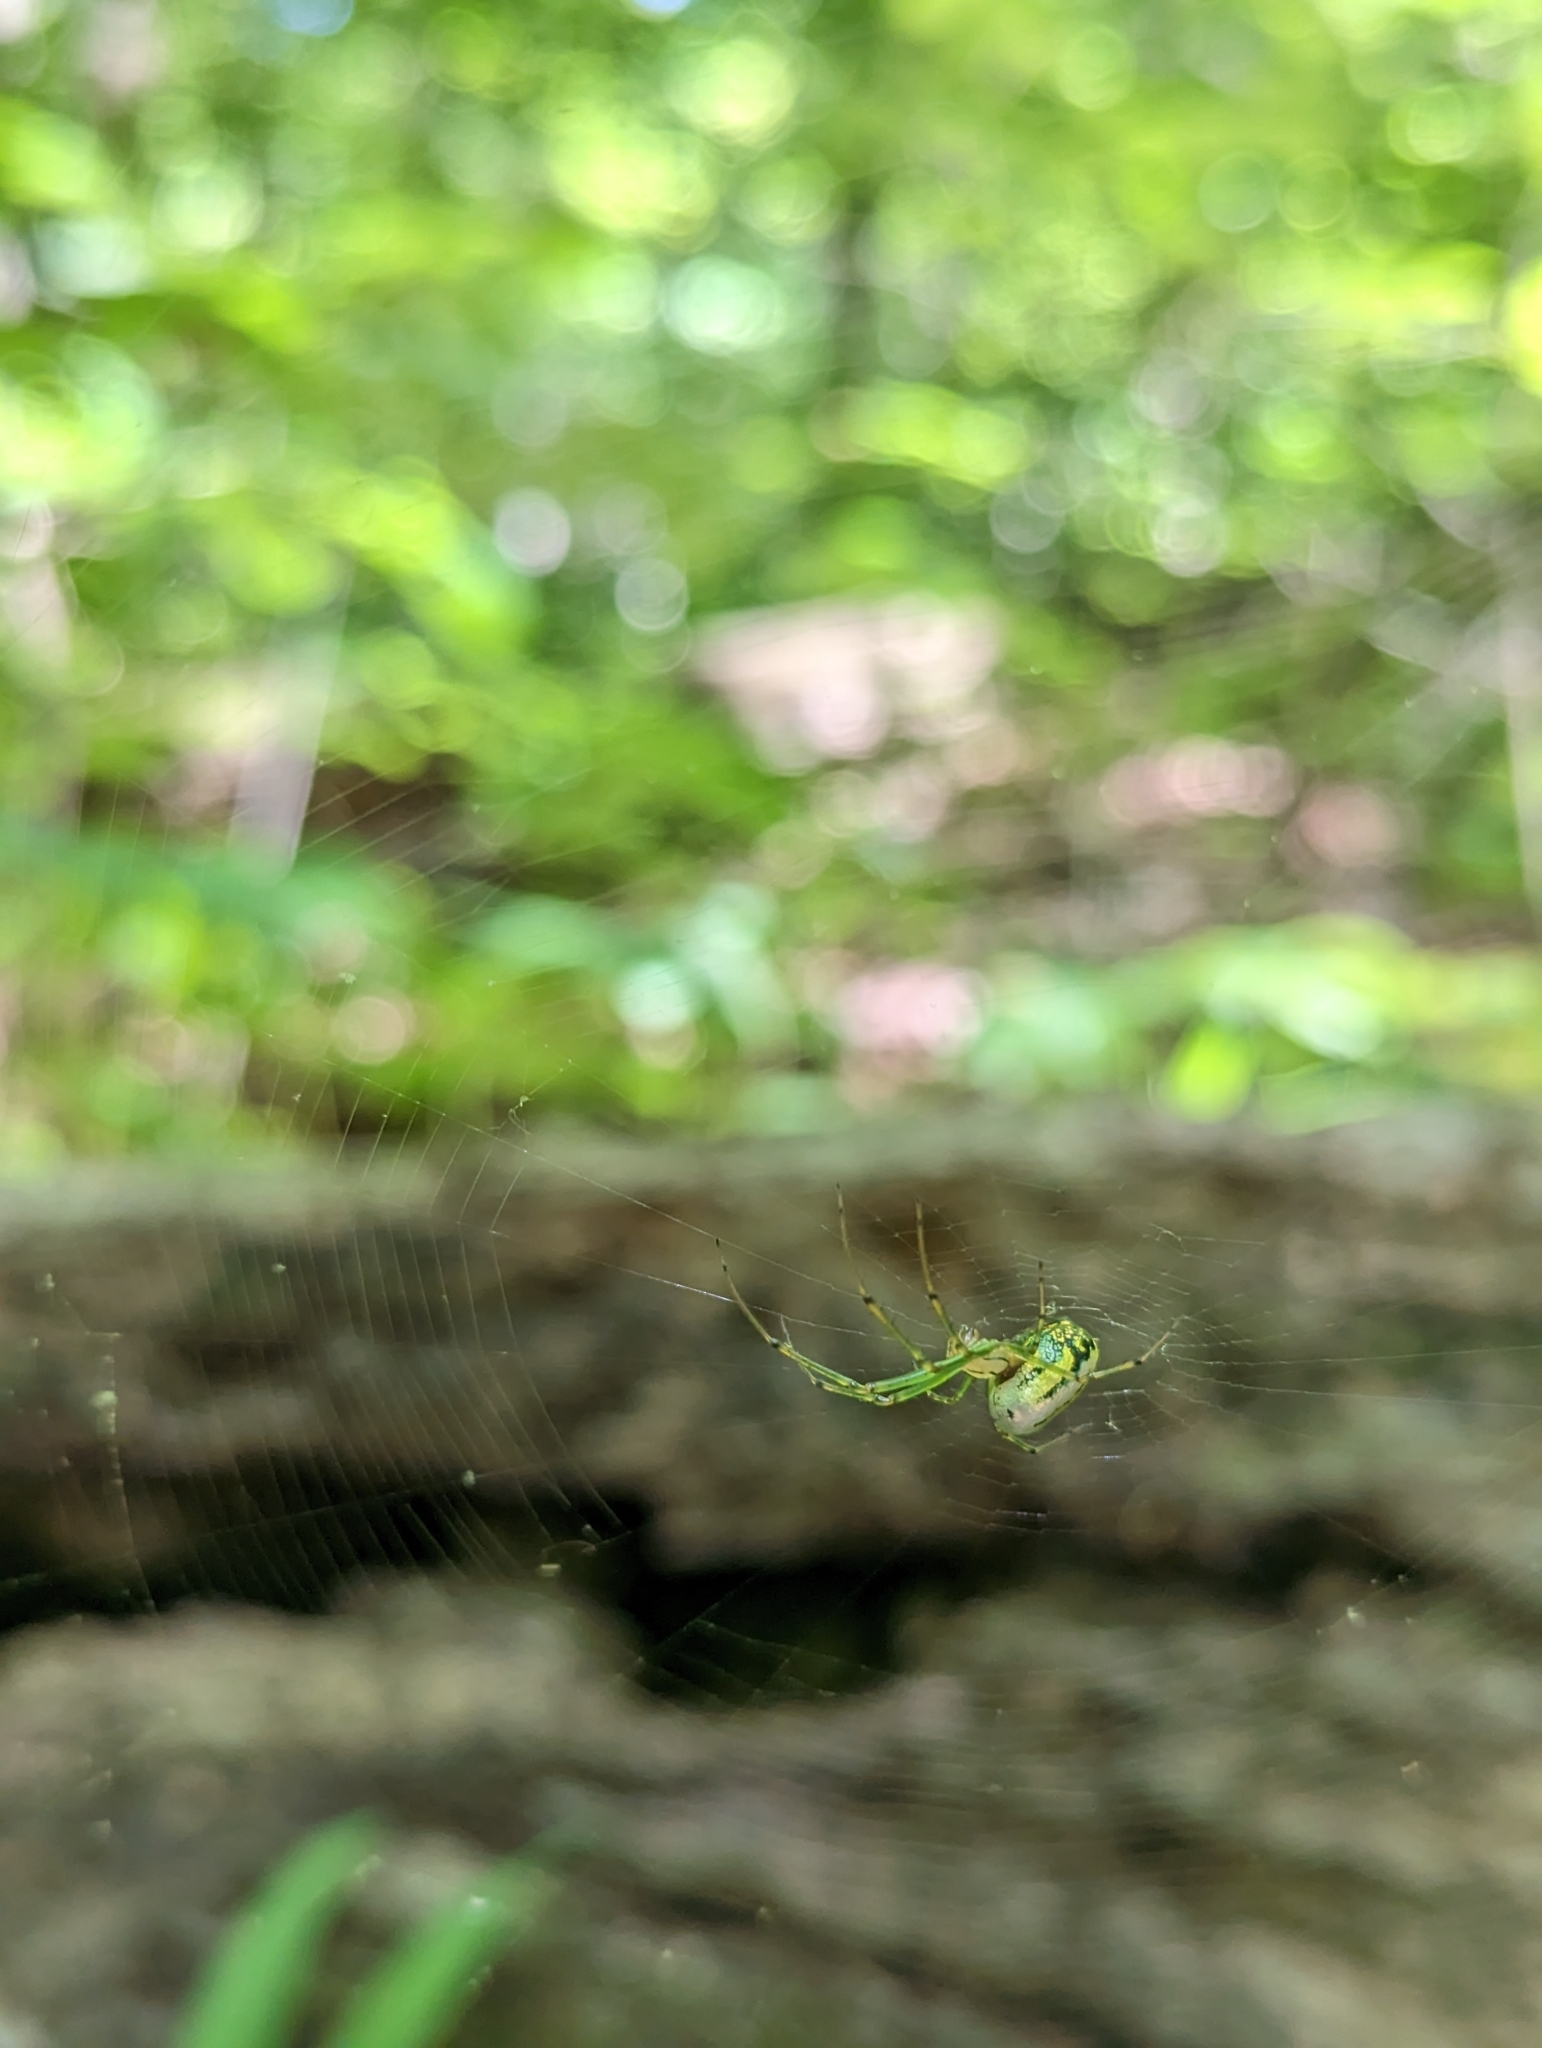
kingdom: Animalia
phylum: Arthropoda
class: Arachnida
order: Araneae
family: Tetragnathidae
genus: Leucauge
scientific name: Leucauge venusta
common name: Longjawed orb weavers
